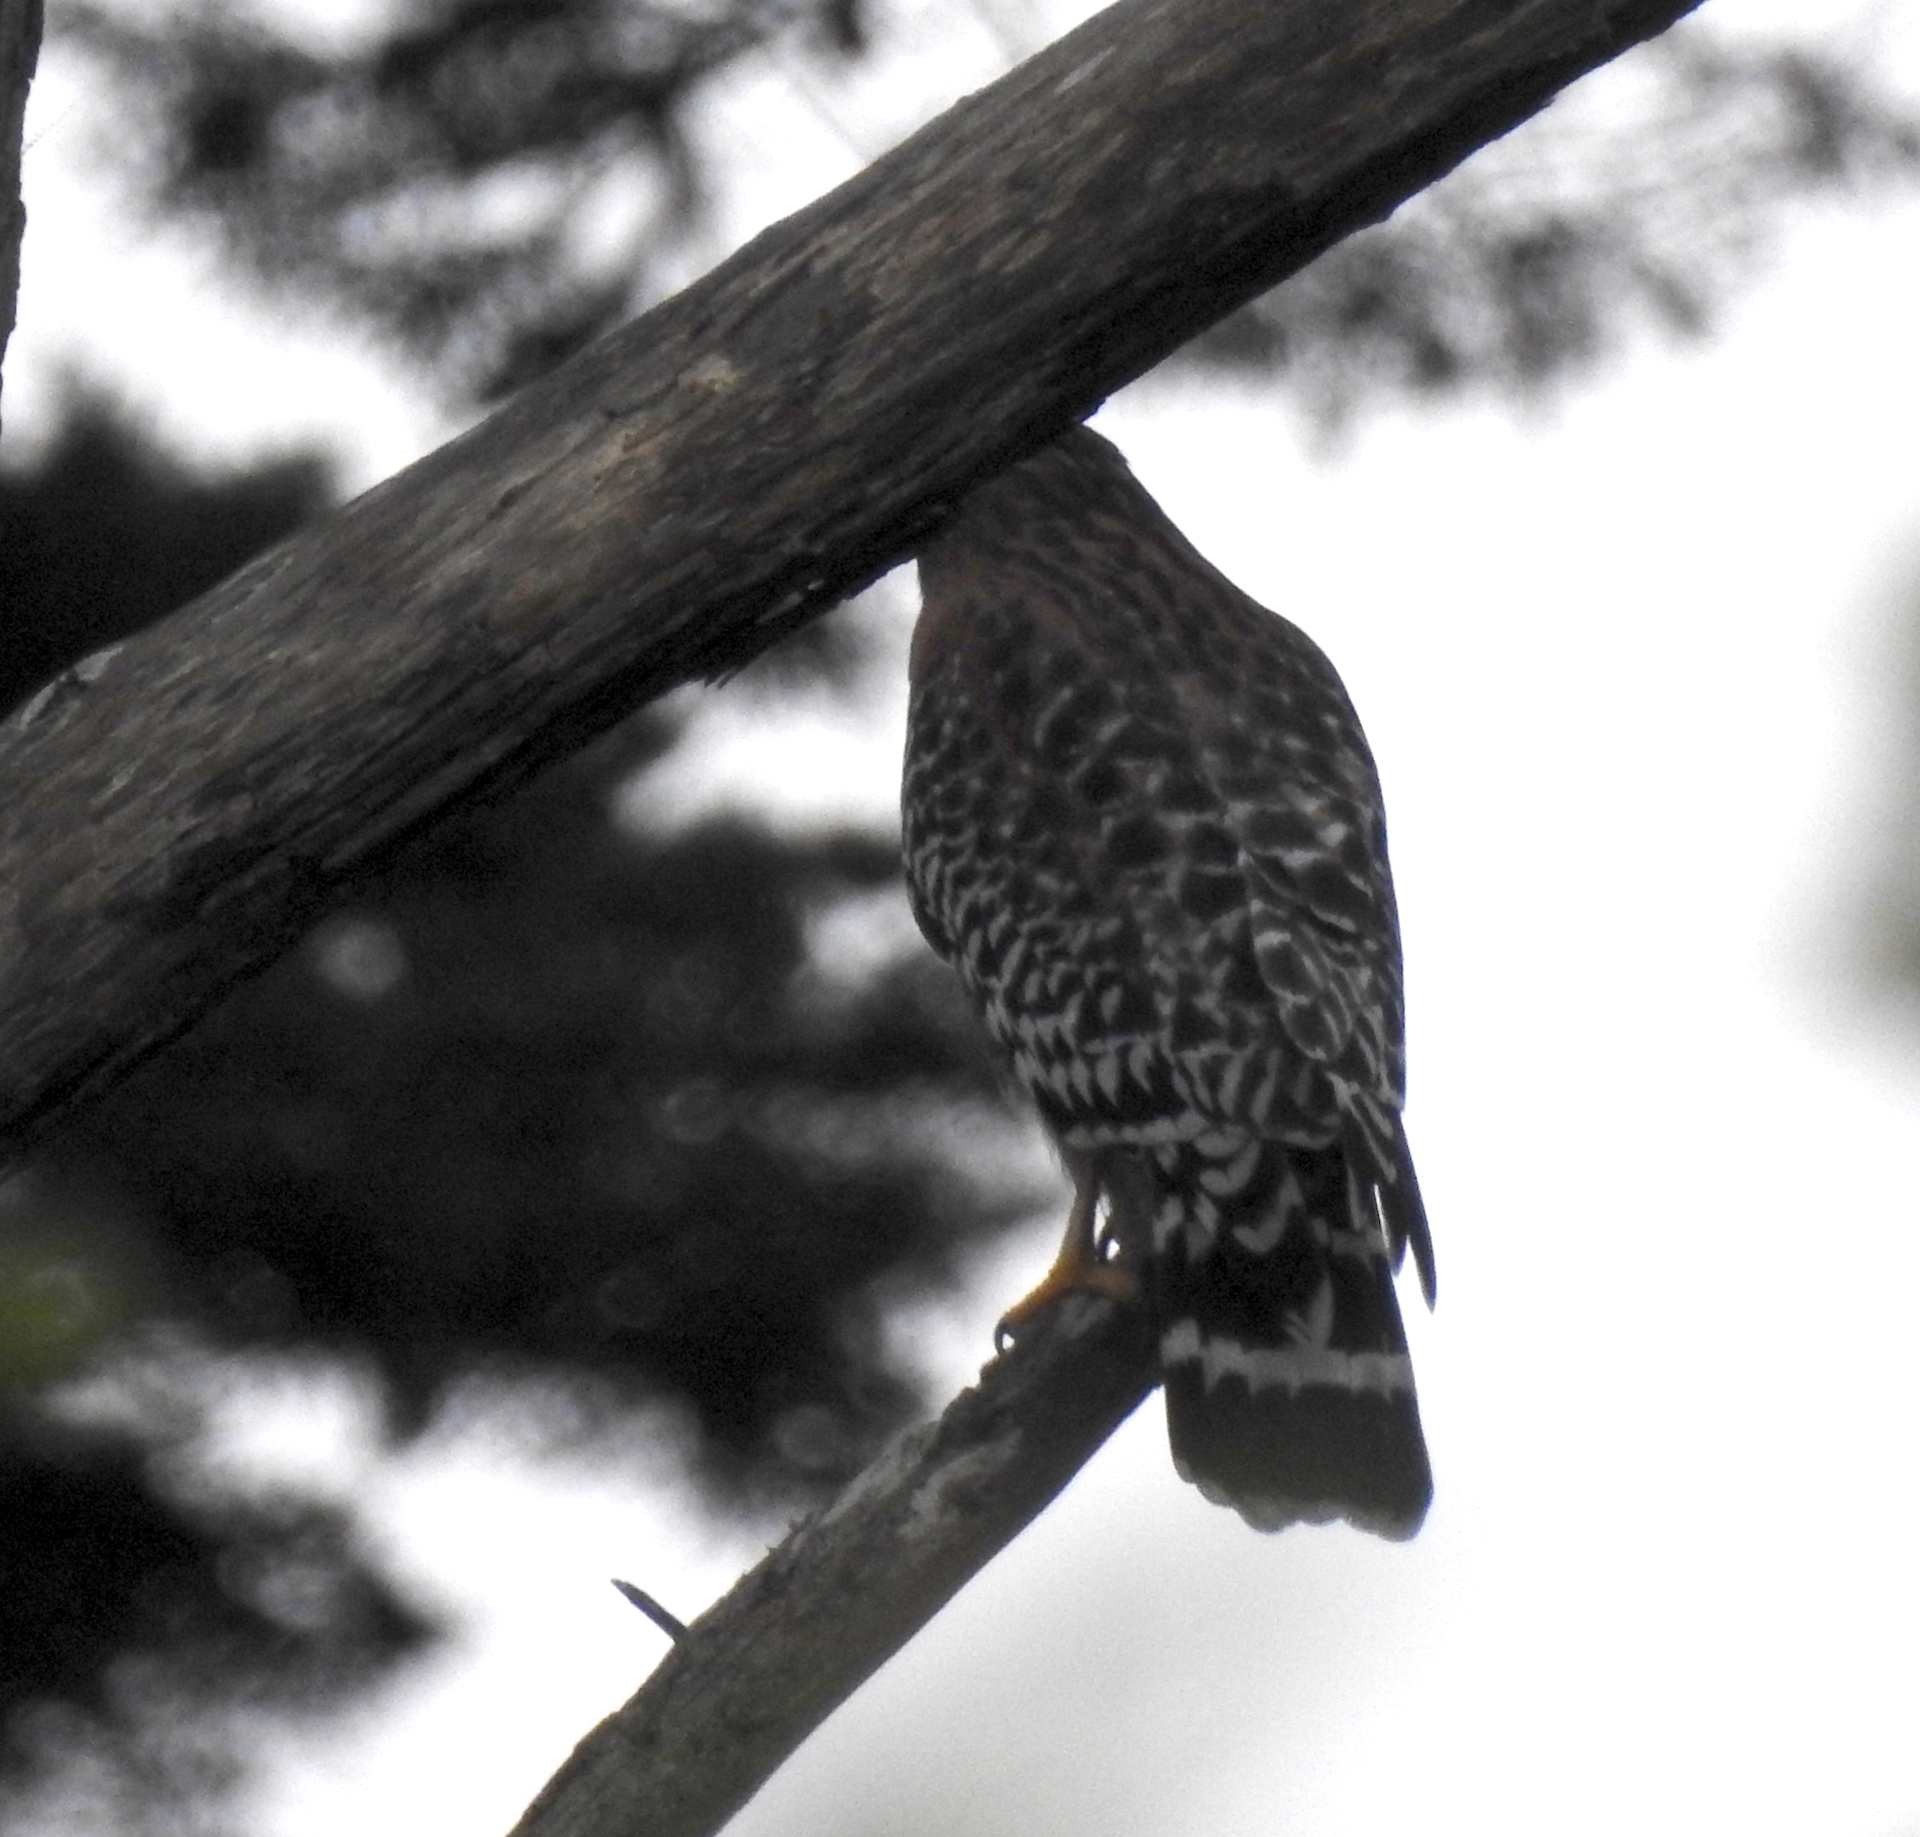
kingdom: Animalia
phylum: Chordata
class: Aves
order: Accipitriformes
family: Accipitridae
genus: Buteo
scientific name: Buteo lineatus
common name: Red-shouldered hawk
